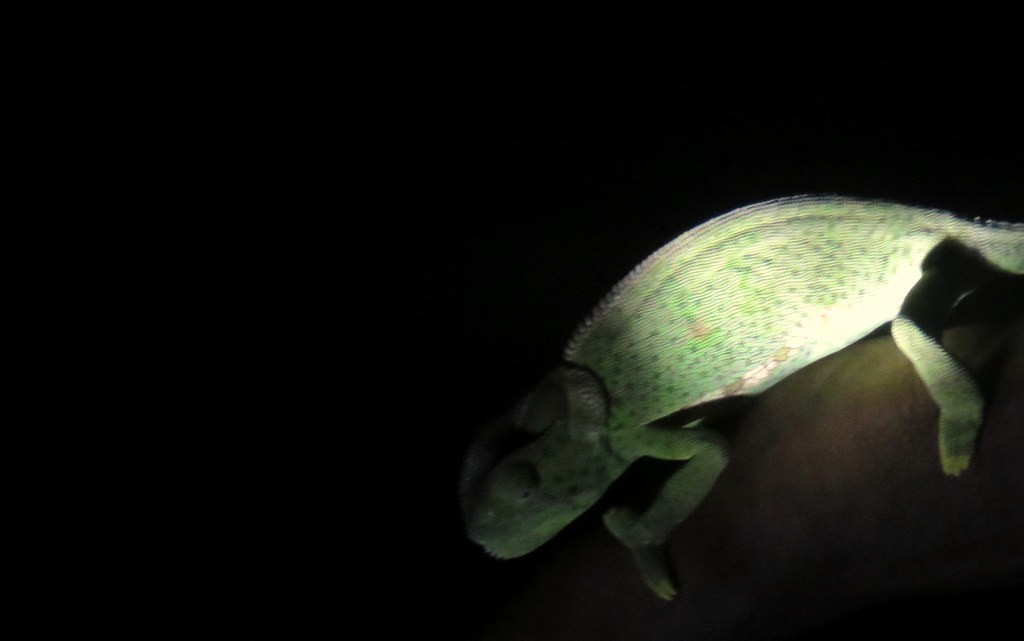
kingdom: Animalia
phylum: Chordata
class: Squamata
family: Chamaeleonidae
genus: Chamaeleo
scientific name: Chamaeleo dilepis
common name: Flapneck chameleon
